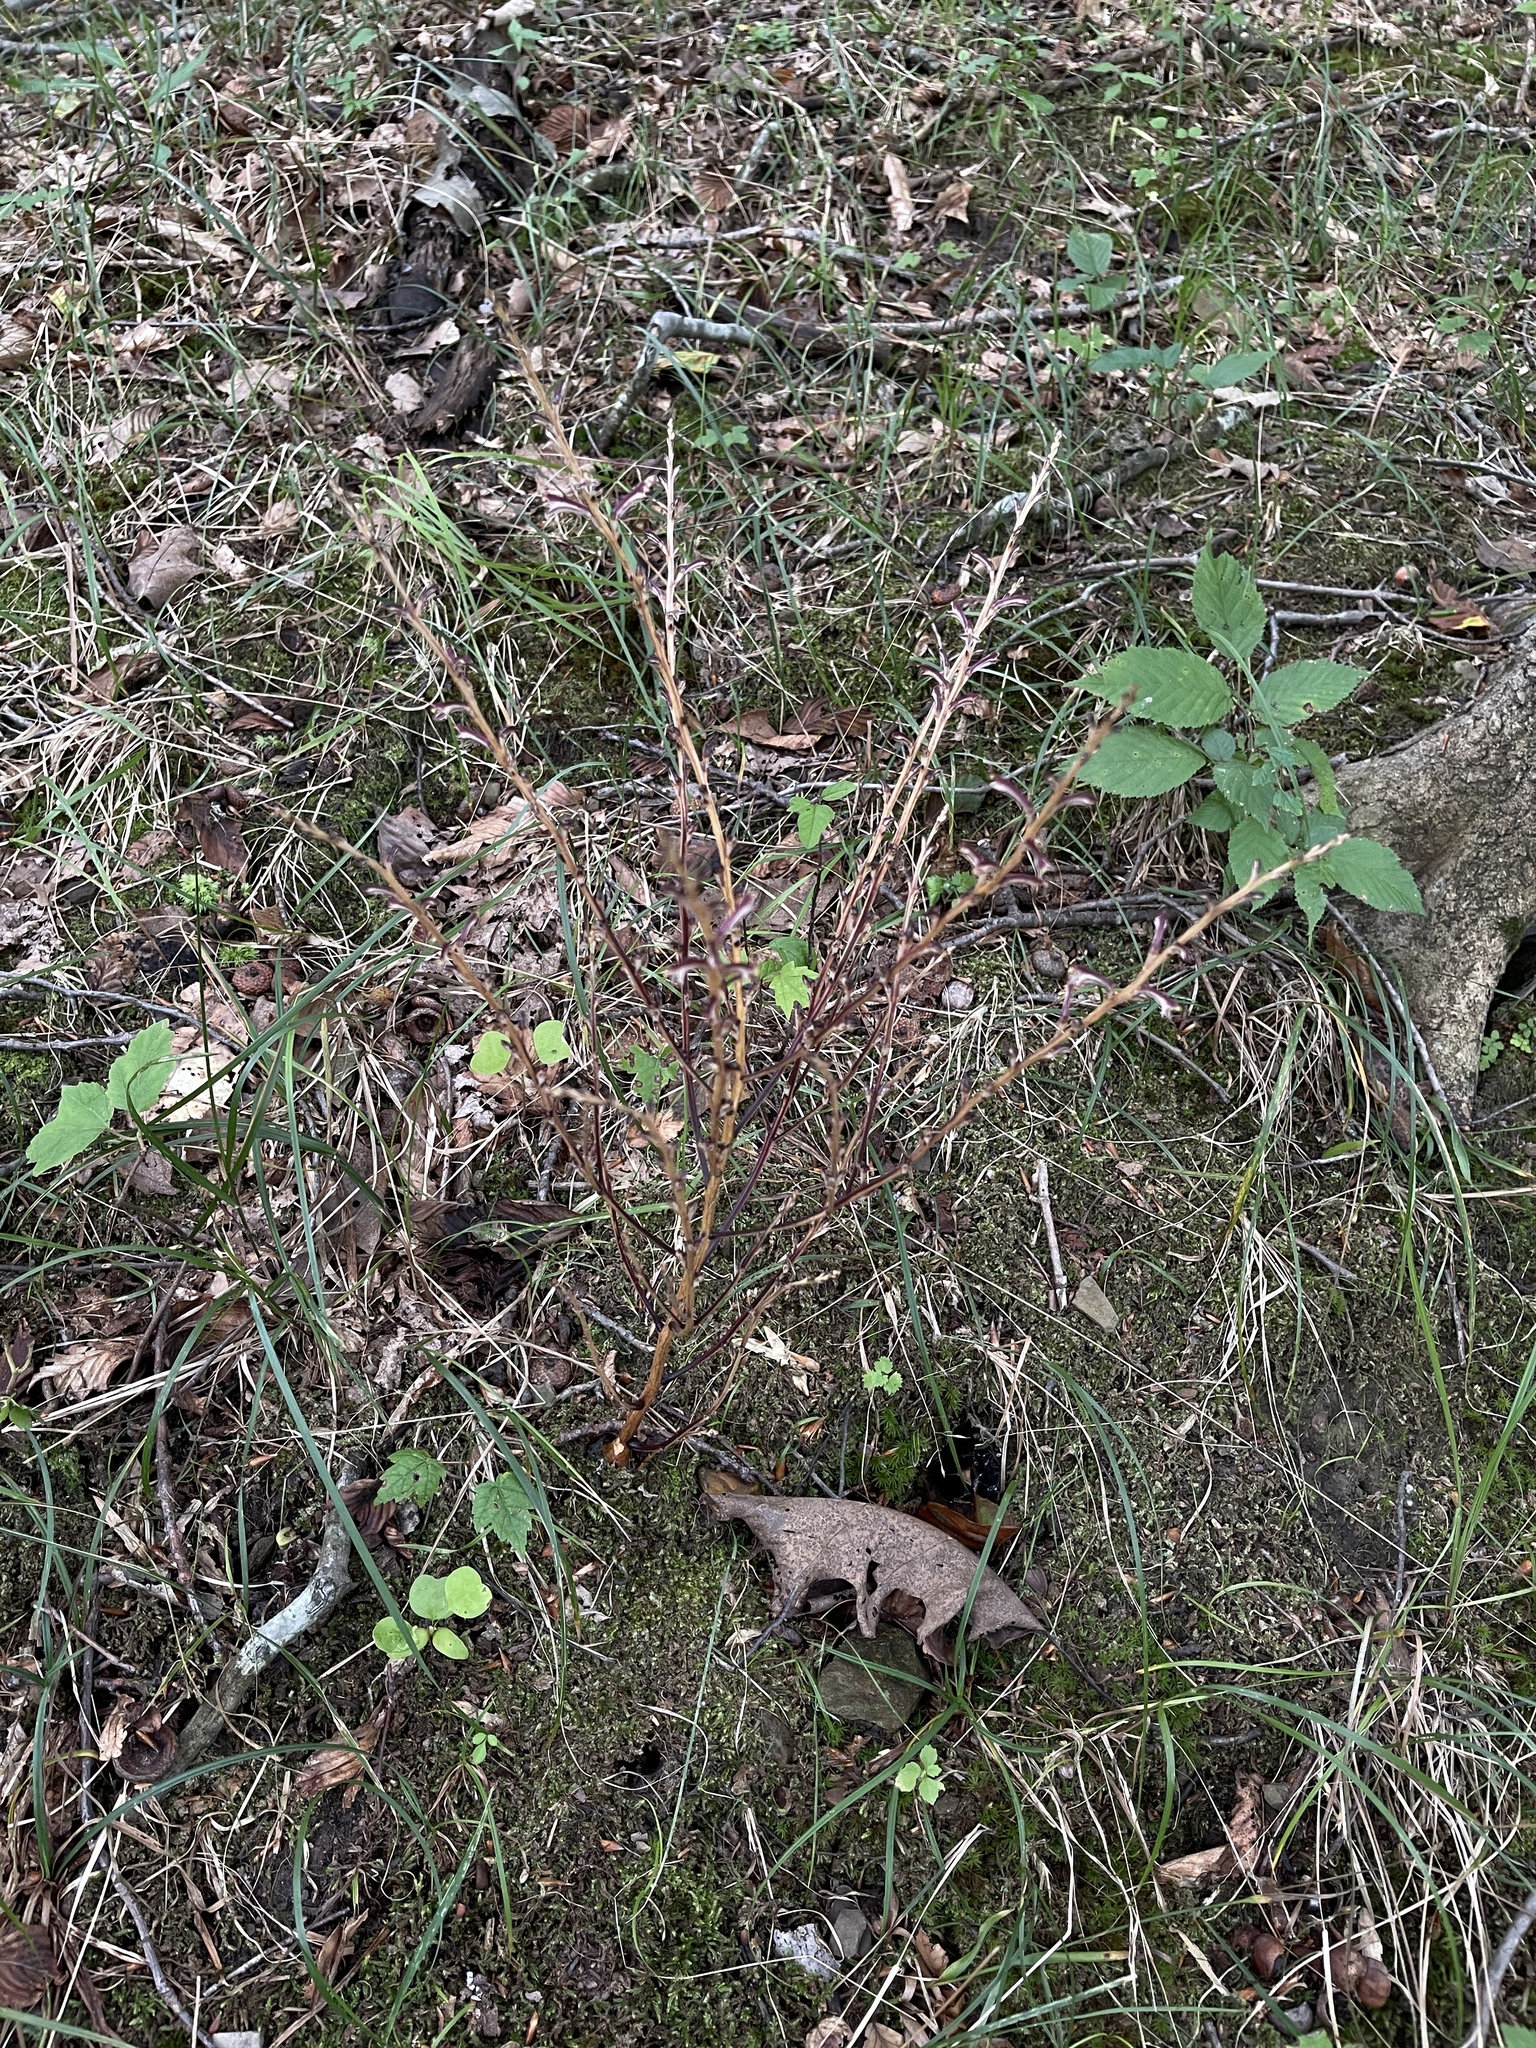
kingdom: Plantae
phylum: Tracheophyta
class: Magnoliopsida
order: Lamiales
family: Orobanchaceae
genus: Epifagus
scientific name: Epifagus virginiana
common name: Beechdrops
